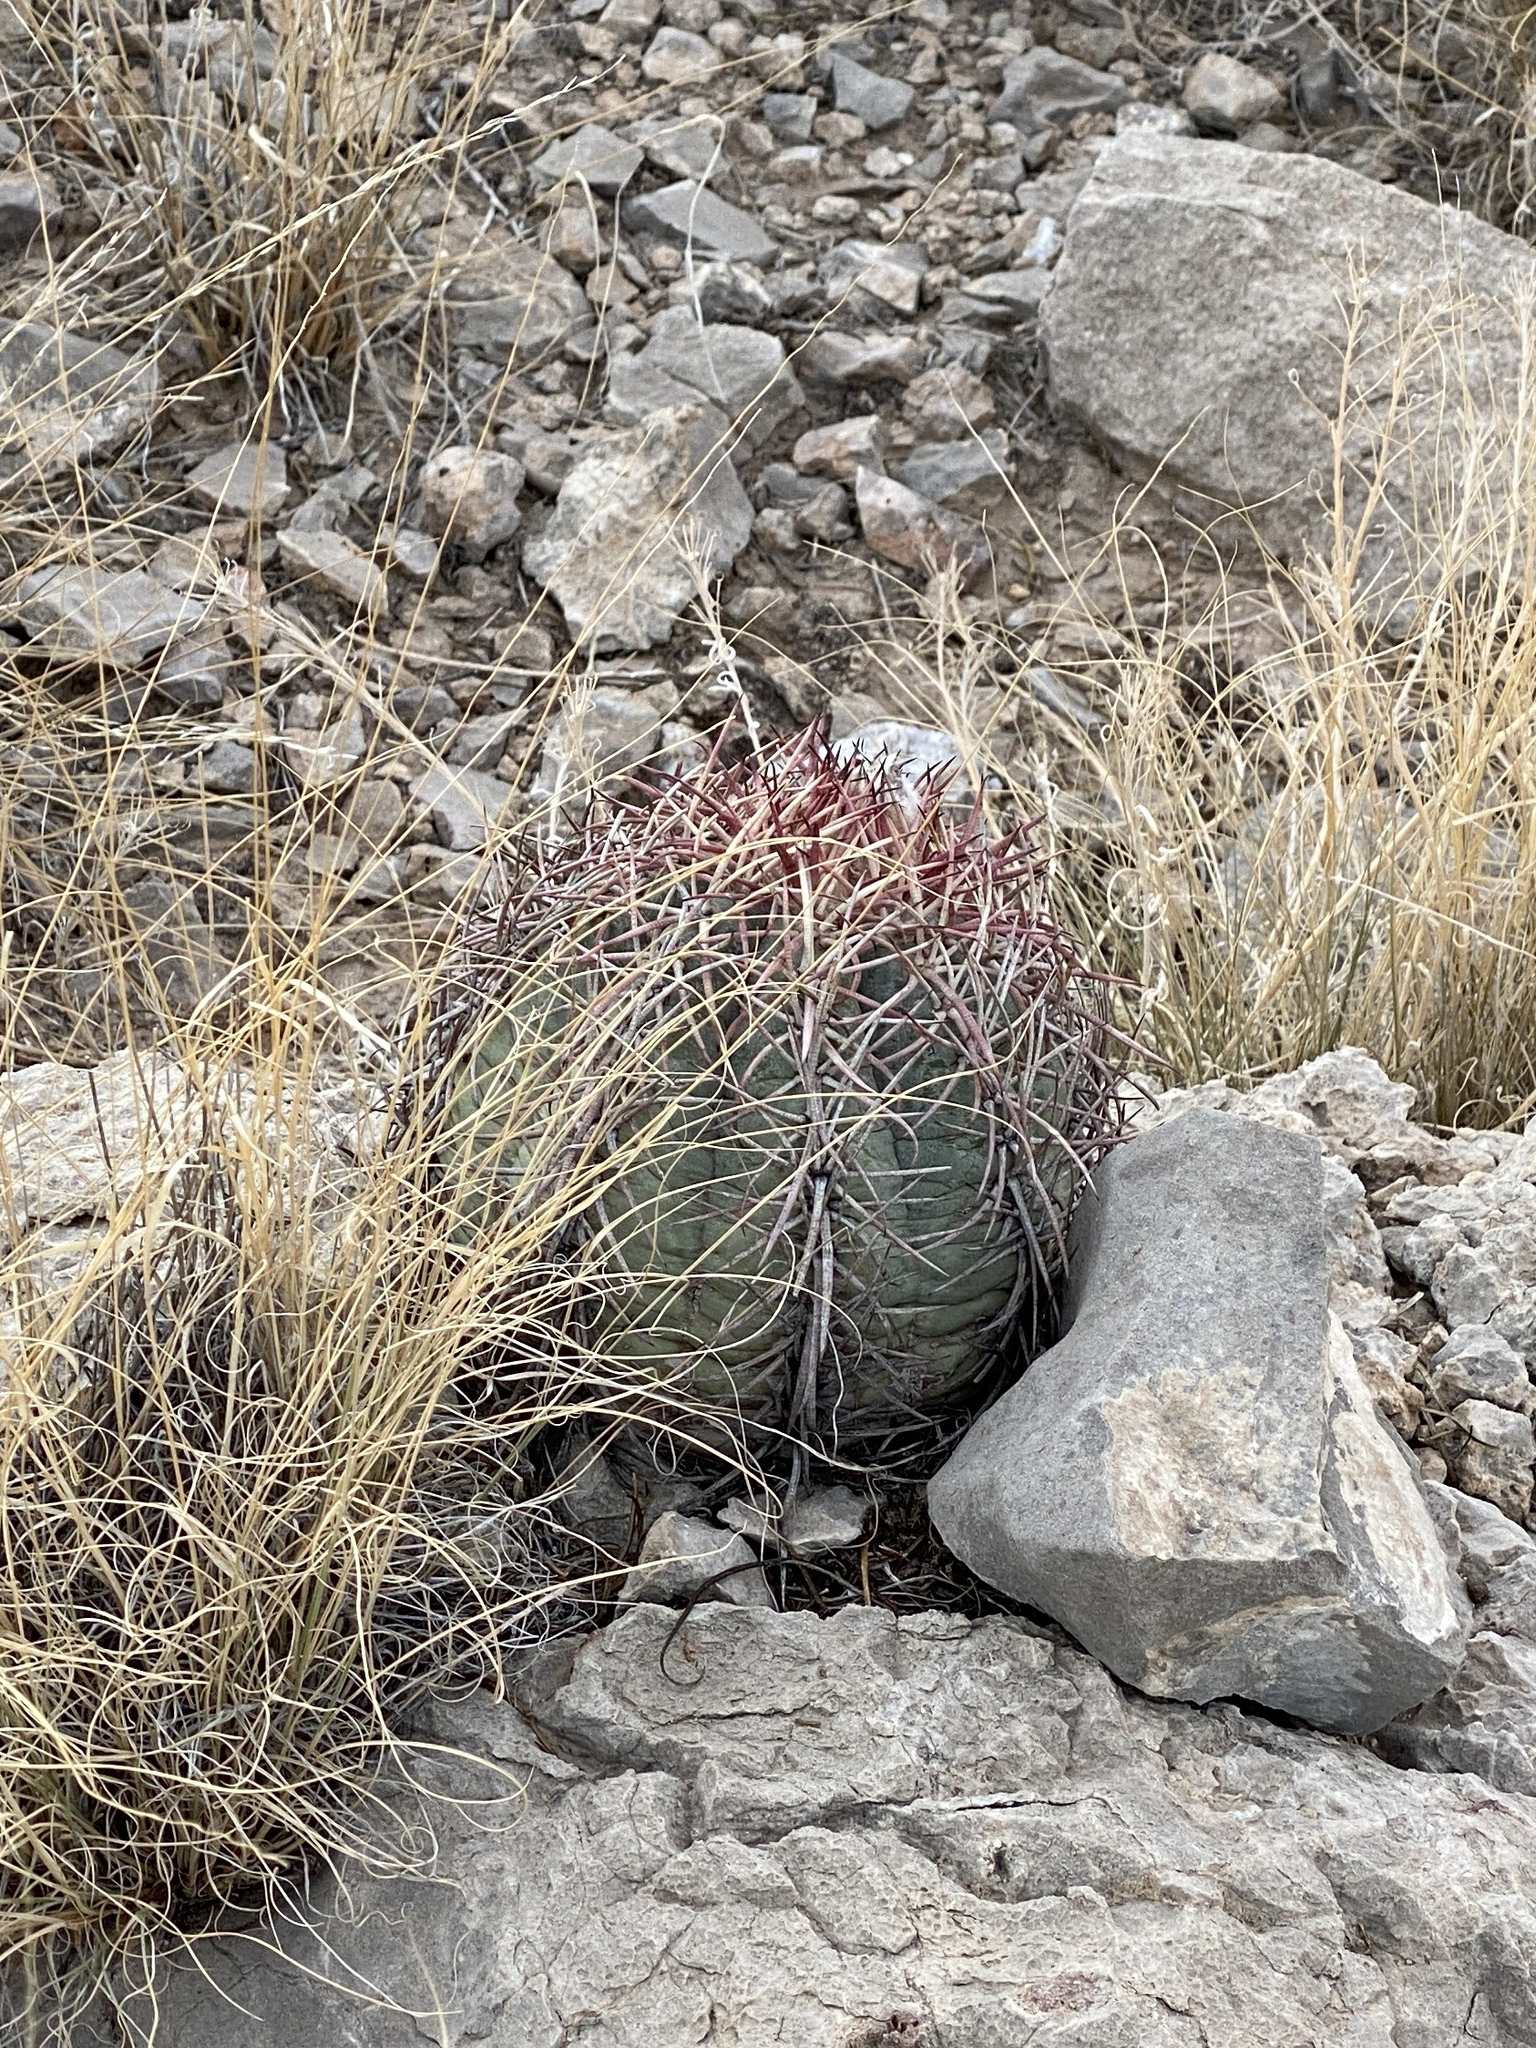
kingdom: Plantae
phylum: Tracheophyta
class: Magnoliopsida
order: Caryophyllales
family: Cactaceae
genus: Echinocactus
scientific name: Echinocactus horizonthalonius
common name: Devilshead
